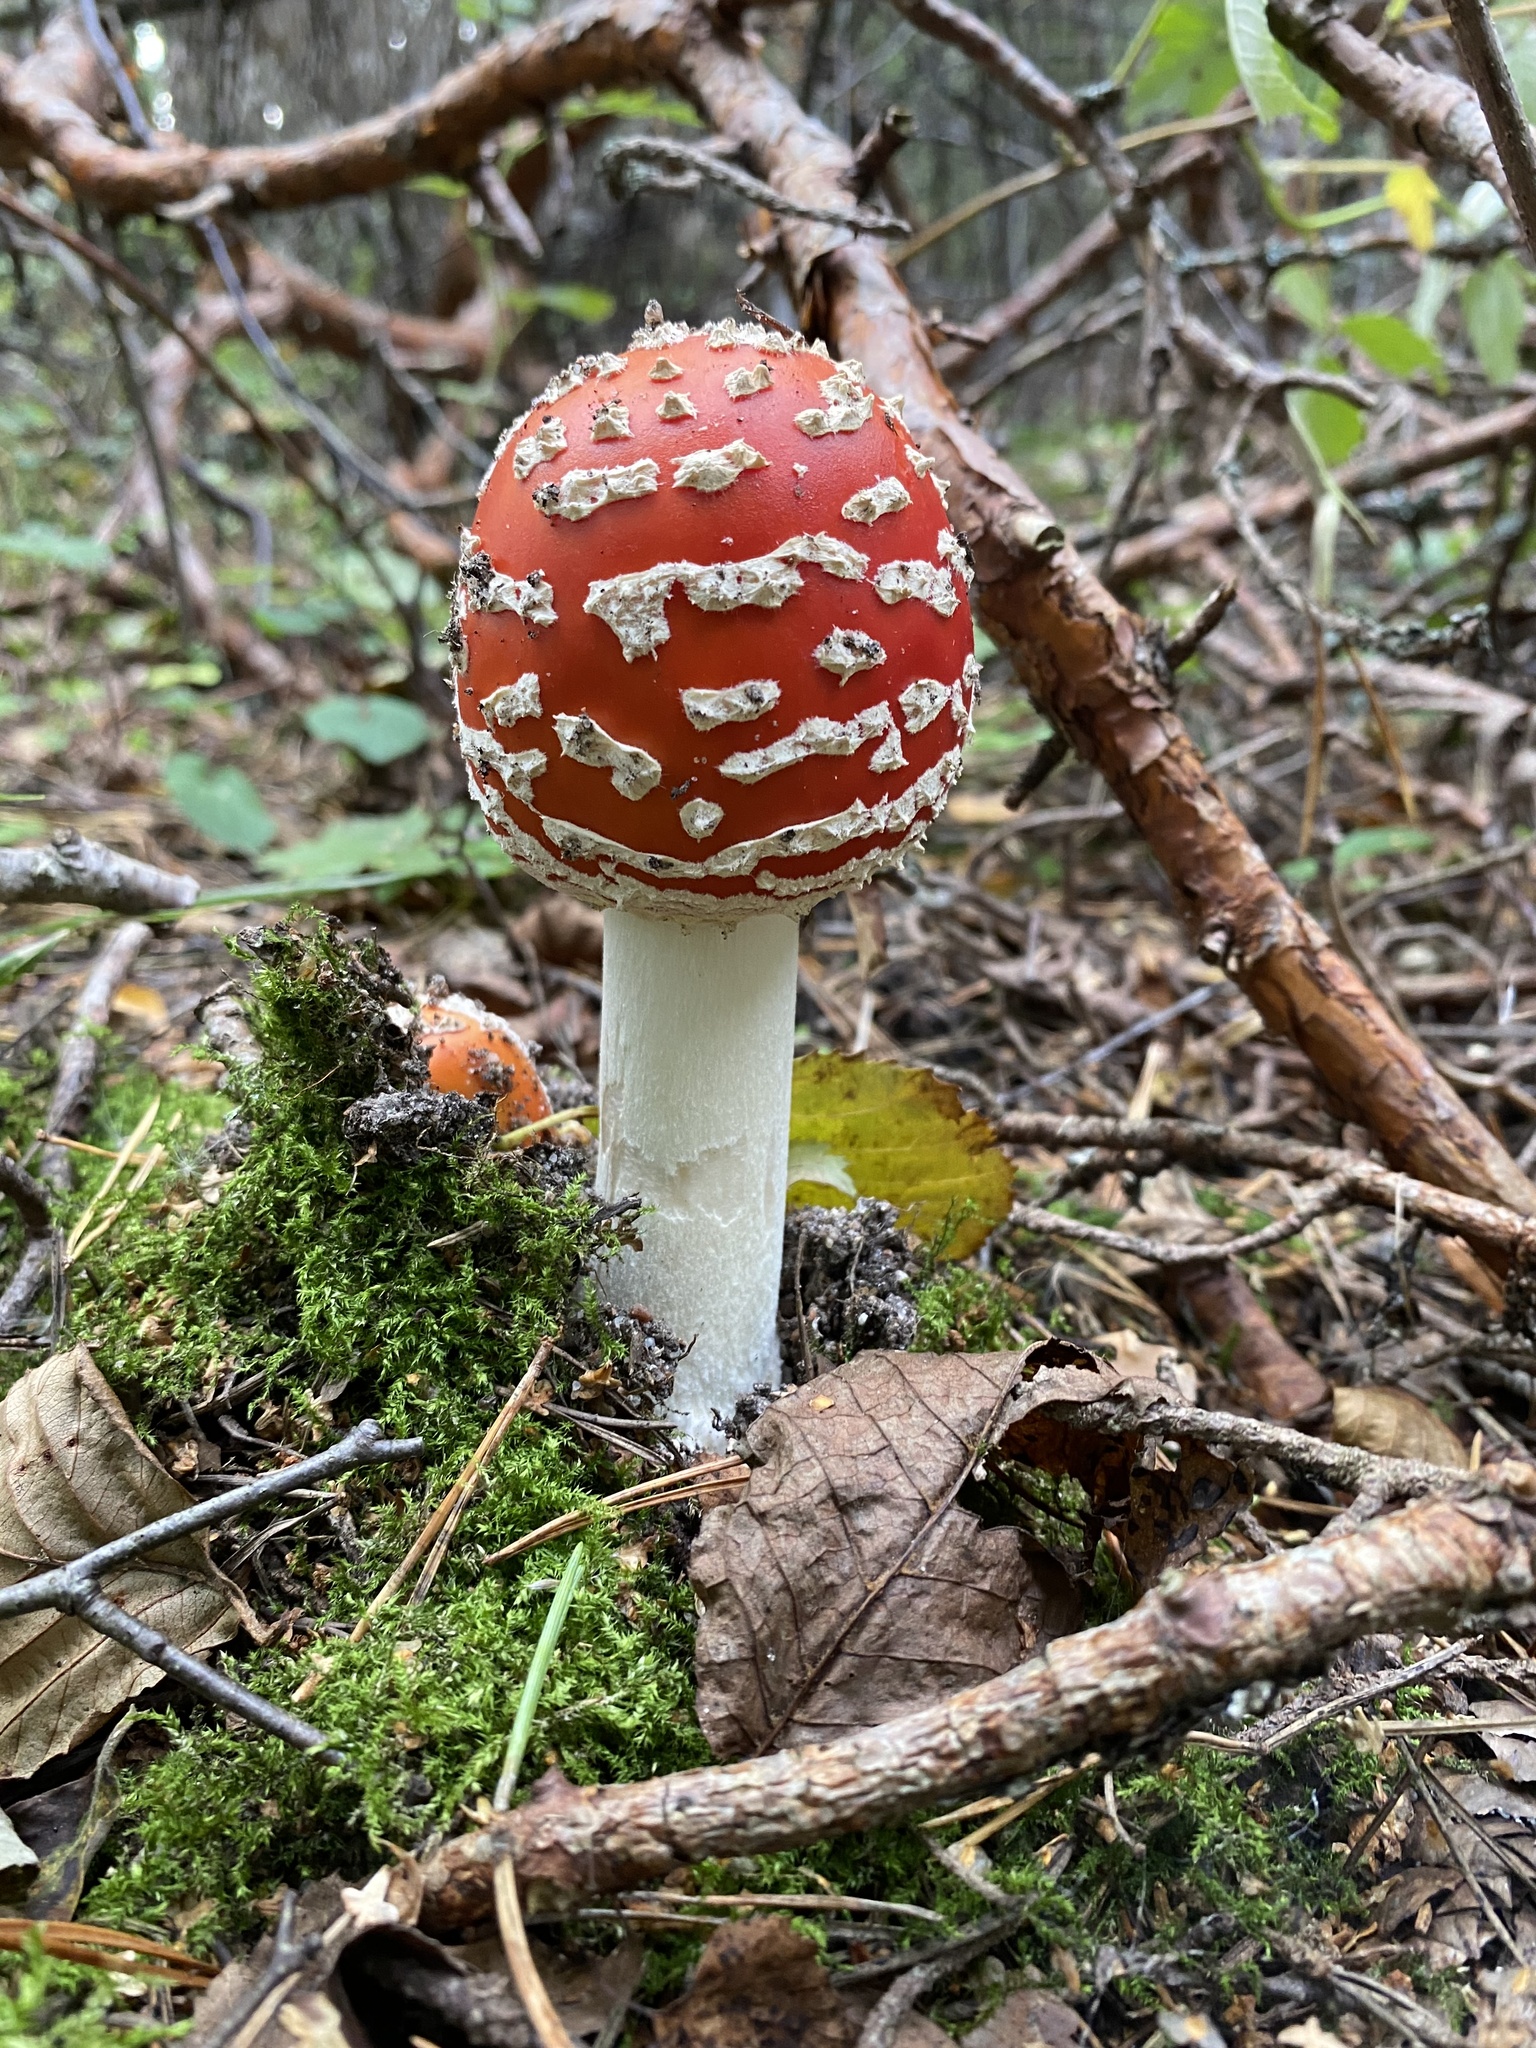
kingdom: Fungi
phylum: Basidiomycota
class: Agaricomycetes
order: Agaricales
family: Amanitaceae
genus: Amanita
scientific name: Amanita muscaria
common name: Fly agaric
